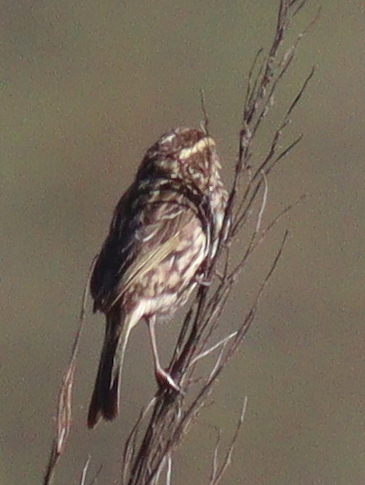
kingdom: Animalia
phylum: Chordata
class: Aves
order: Passeriformes
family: Fringillidae
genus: Crithagra
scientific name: Crithagra striolata
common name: Streaky seedeater
